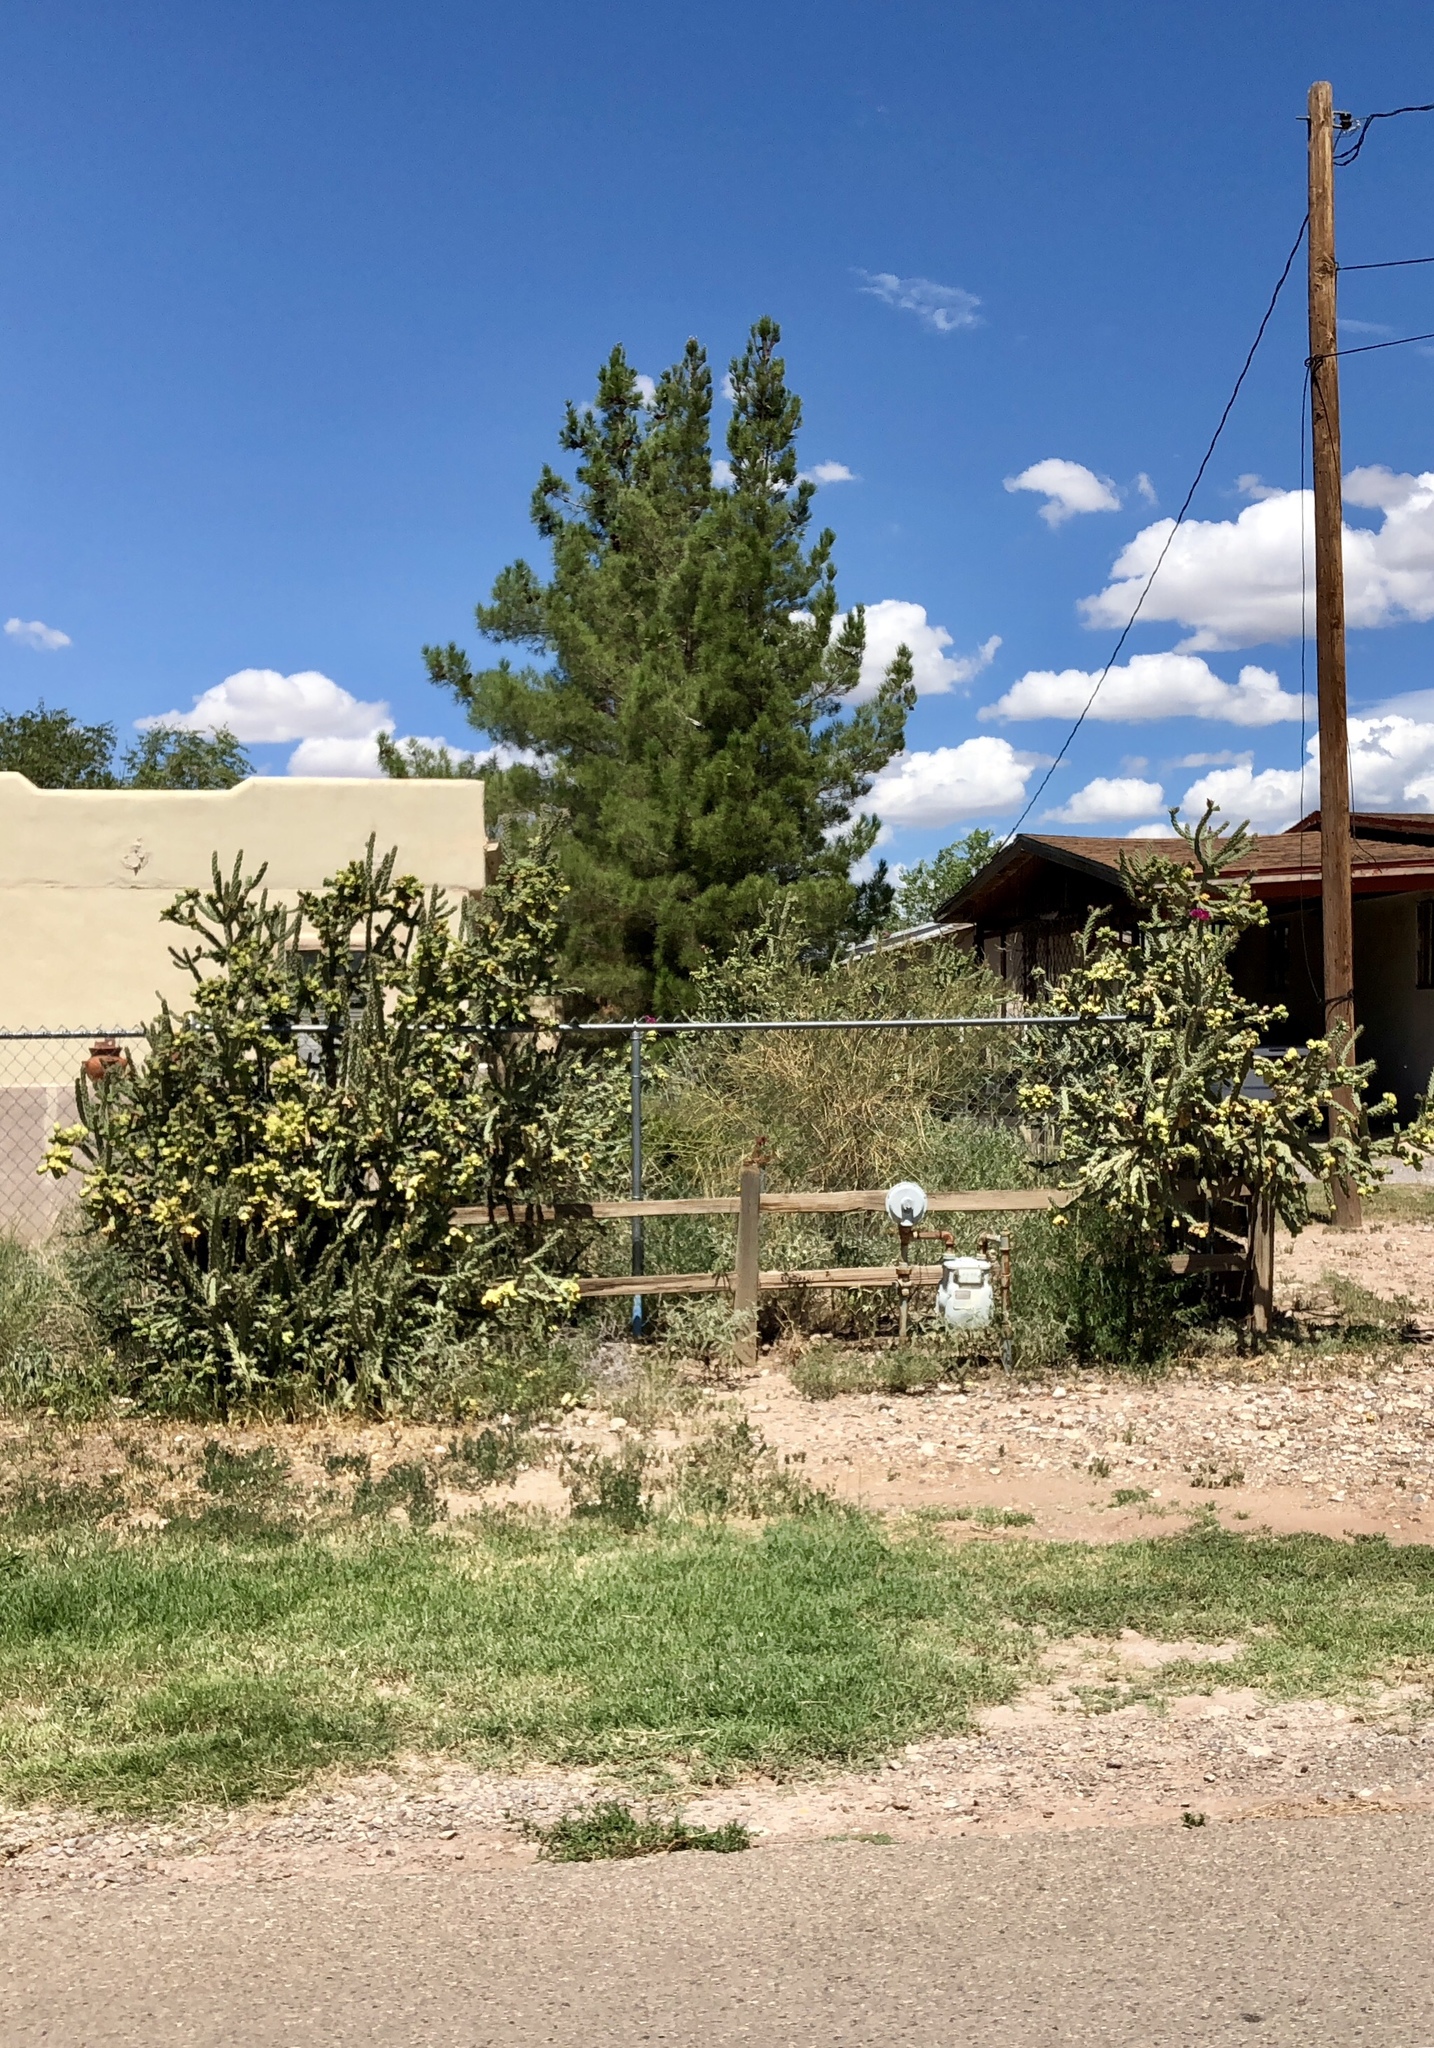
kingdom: Plantae
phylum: Tracheophyta
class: Magnoliopsida
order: Caryophyllales
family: Cactaceae
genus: Cylindropuntia
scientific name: Cylindropuntia imbricata
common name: Candelabrum cactus
